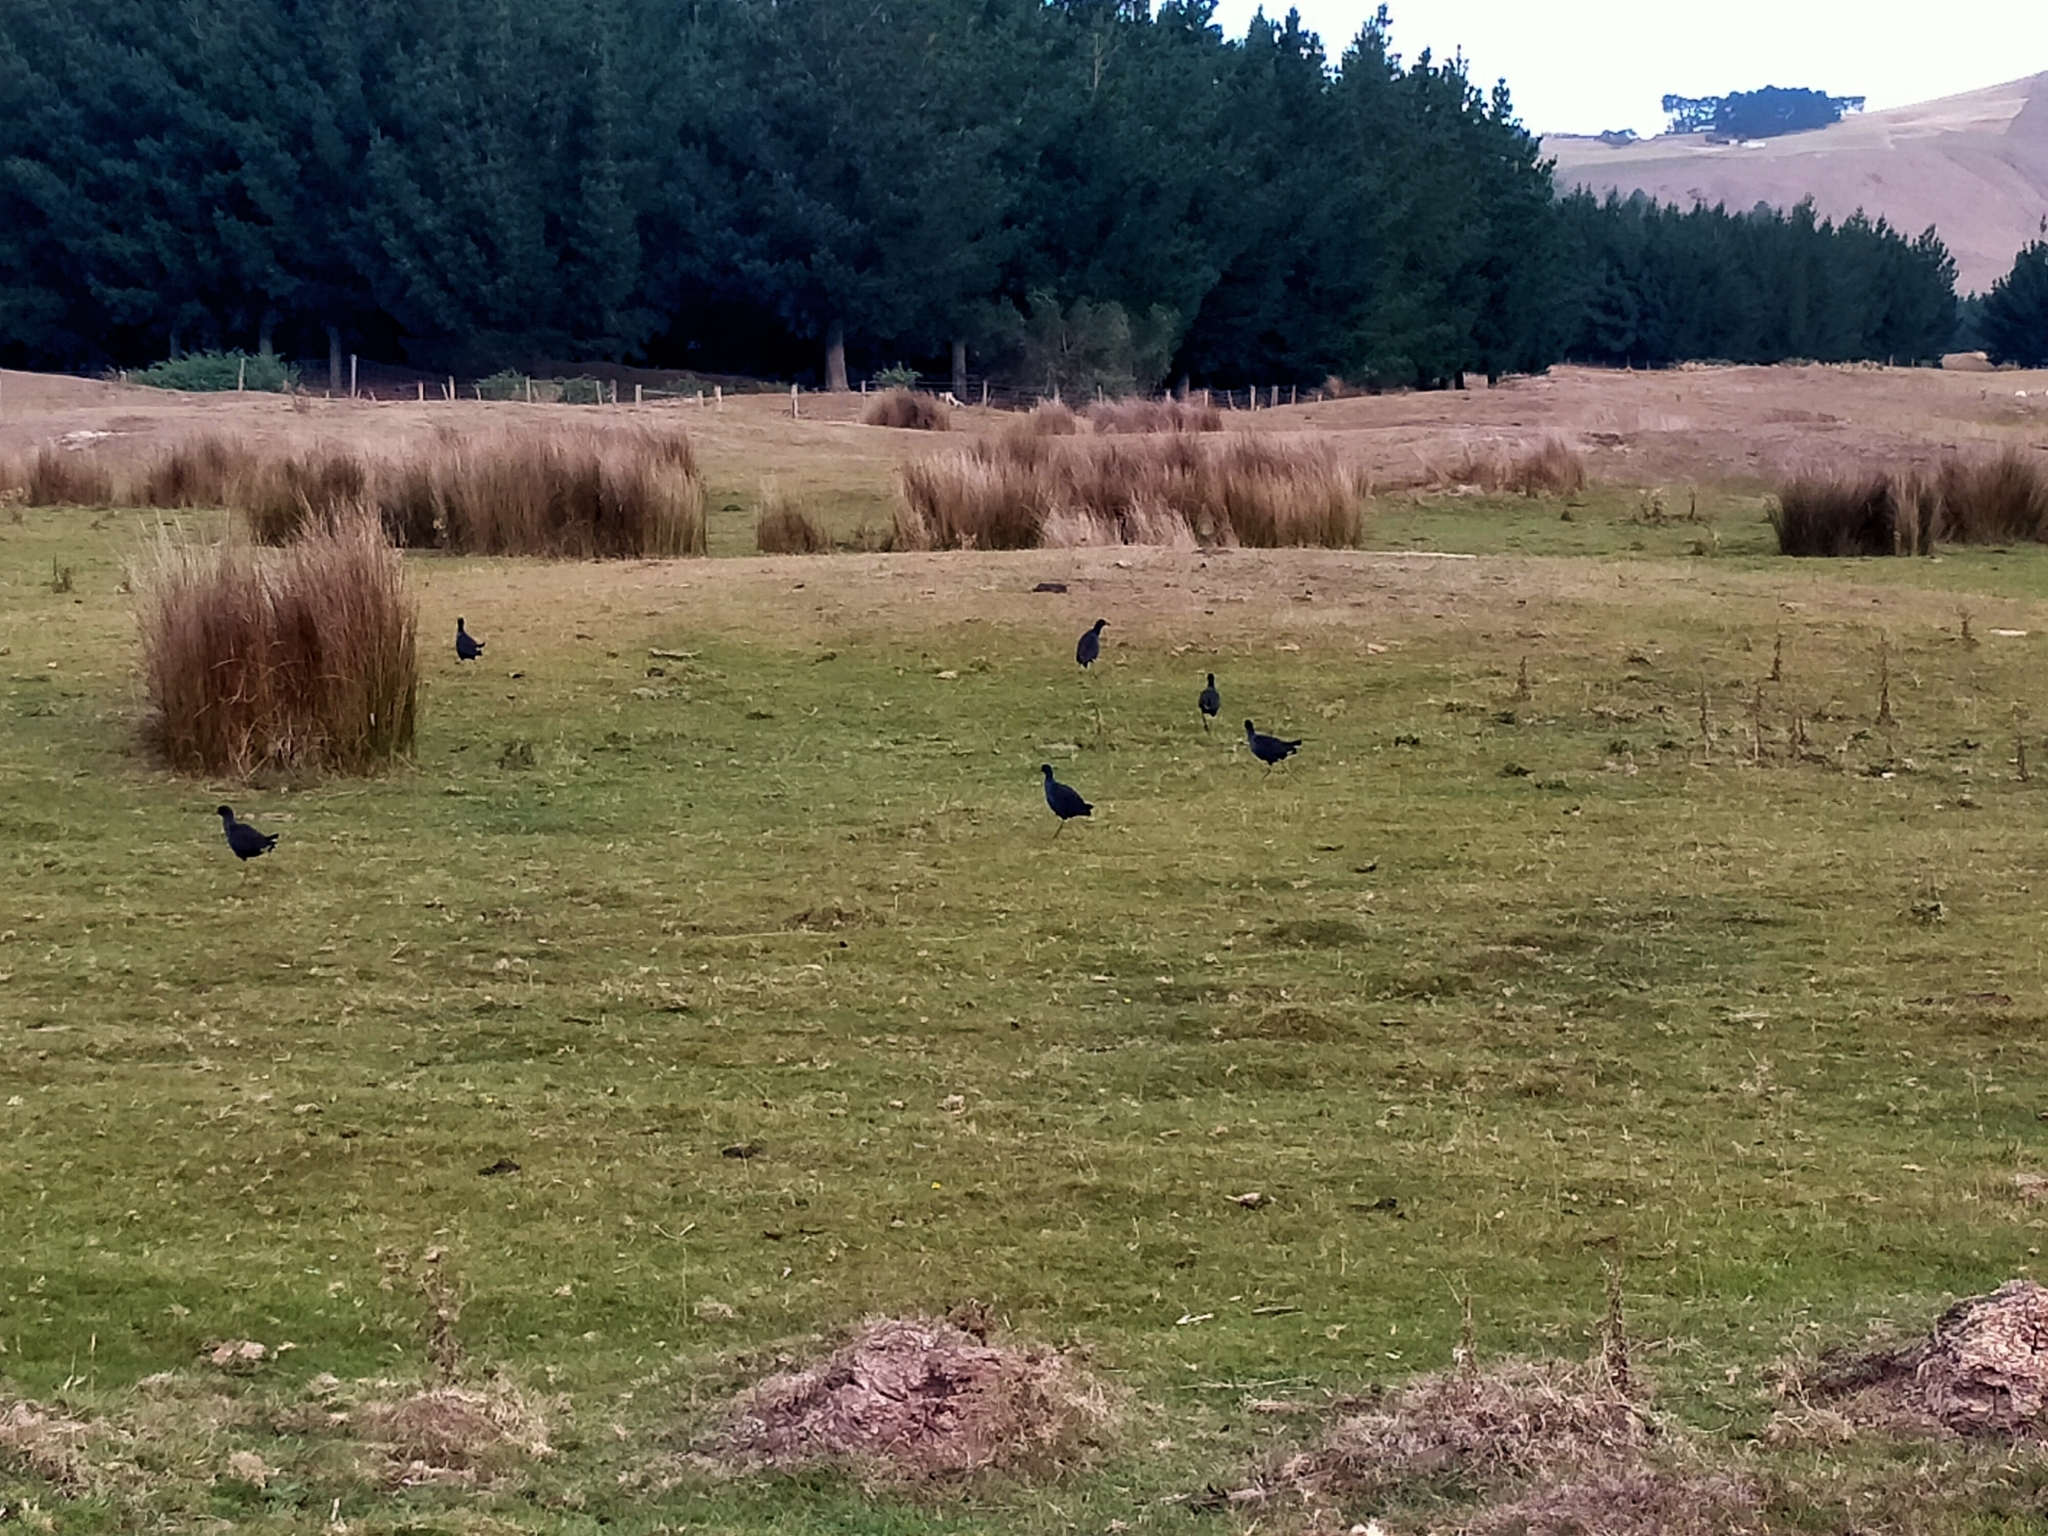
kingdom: Animalia
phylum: Chordata
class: Aves
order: Gruiformes
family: Rallidae
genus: Porphyrio
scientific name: Porphyrio melanotus
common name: Australasian swamphen
